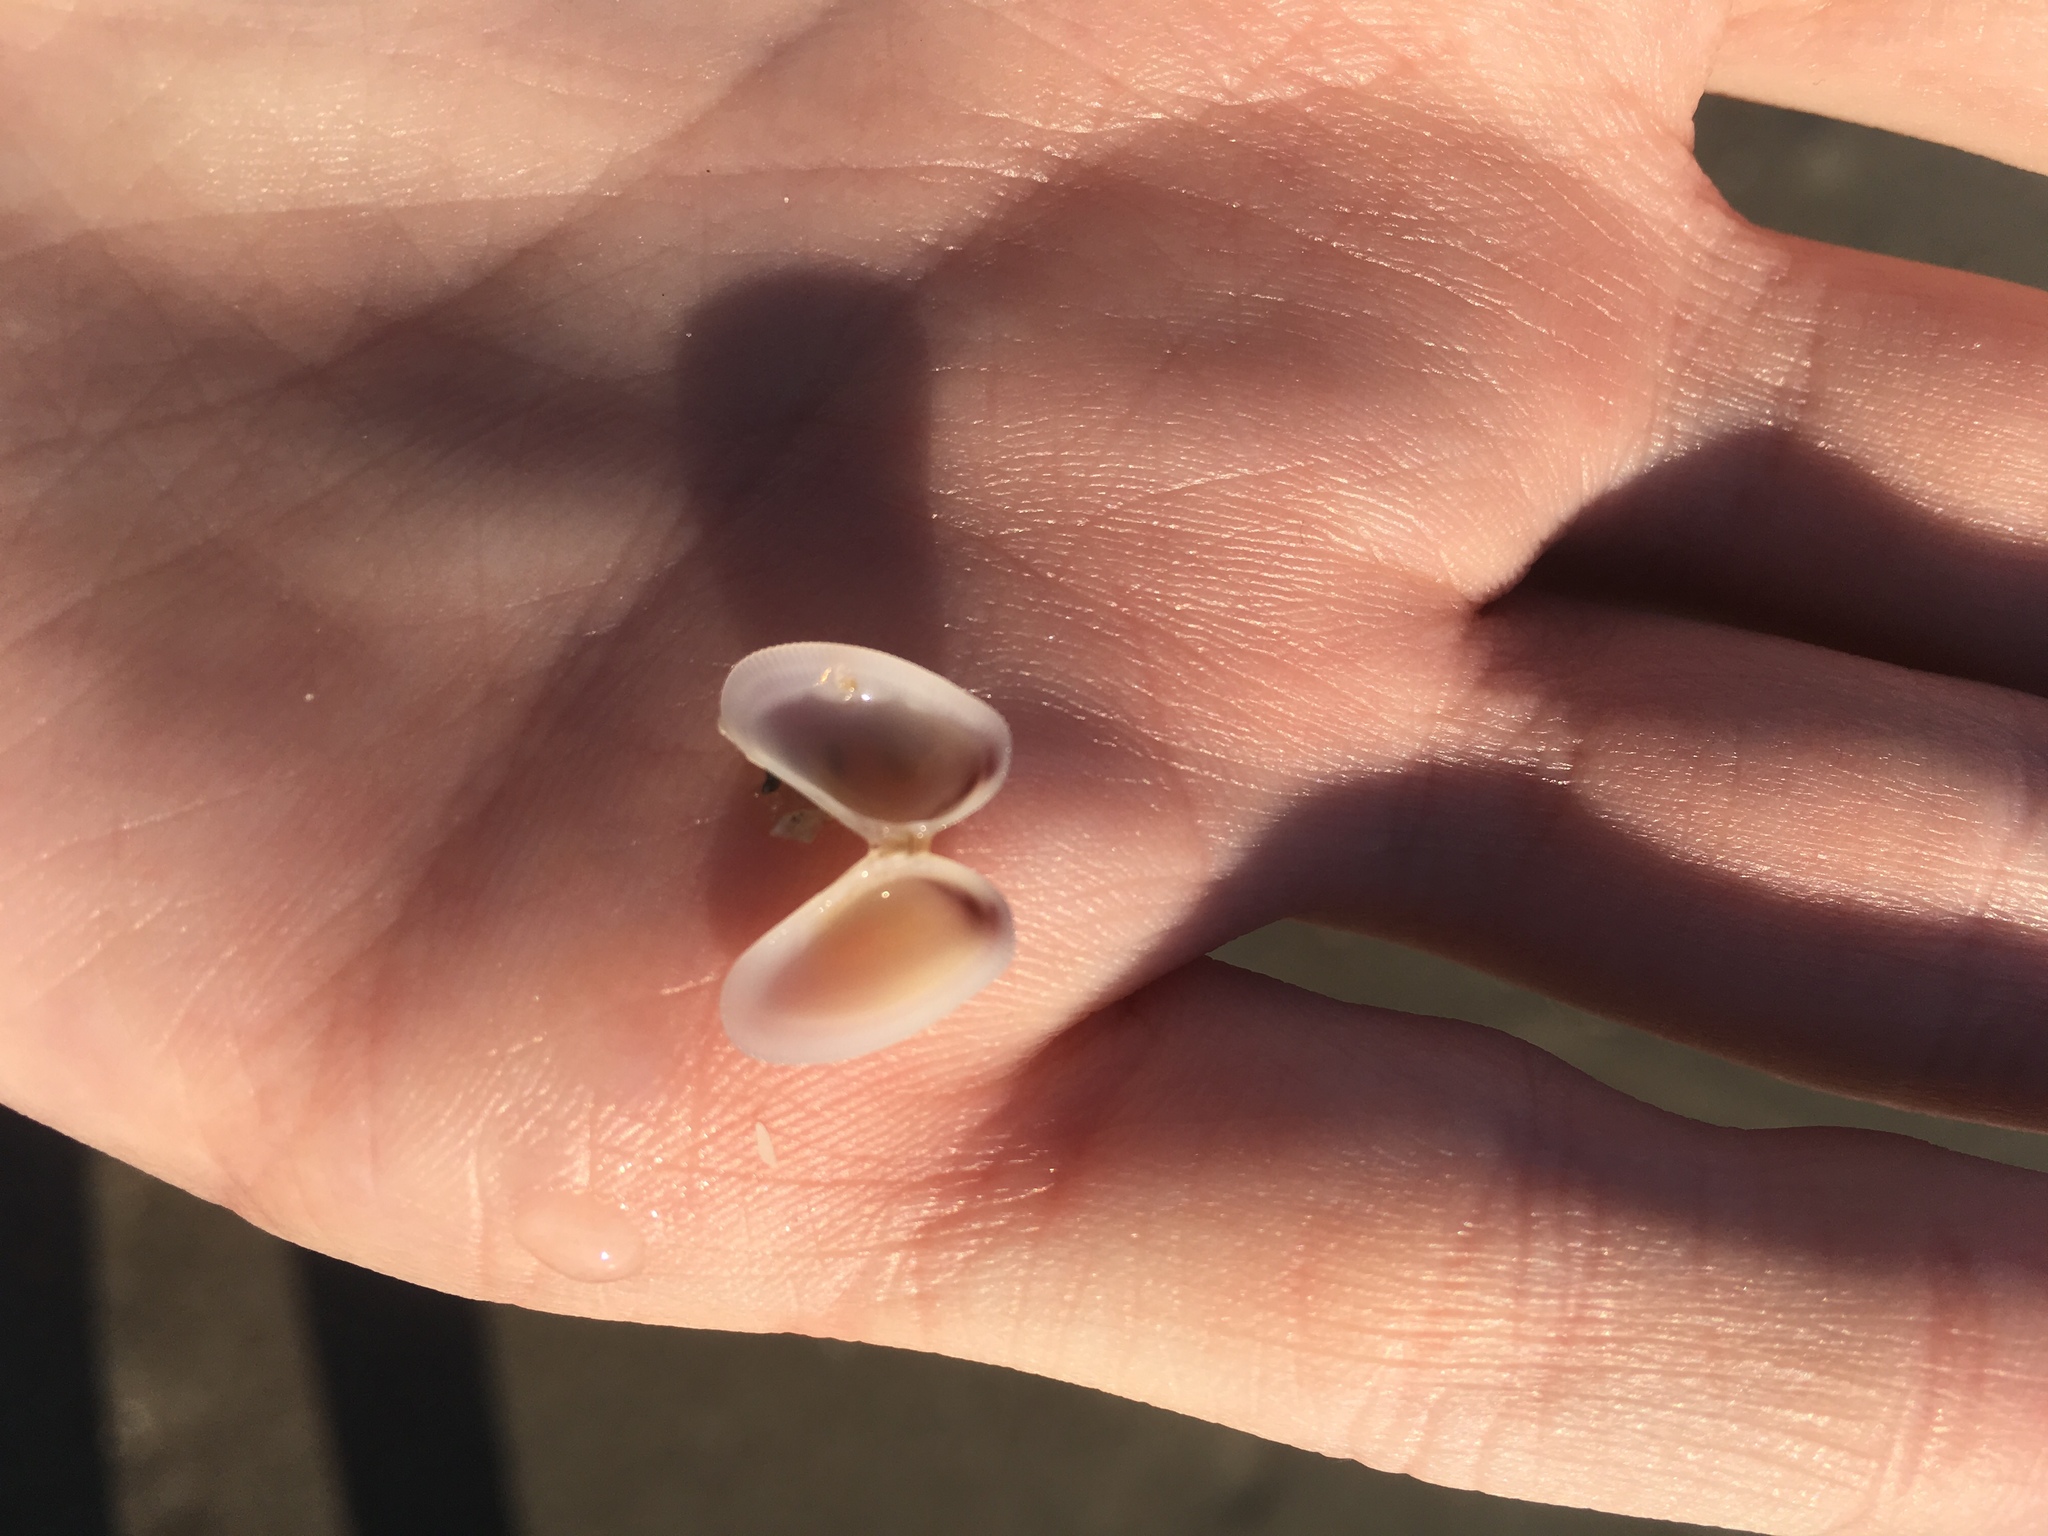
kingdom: Animalia
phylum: Mollusca
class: Bivalvia
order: Cardiida
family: Donacidae
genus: Donax
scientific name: Donax variabilis
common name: Butterfly shell
